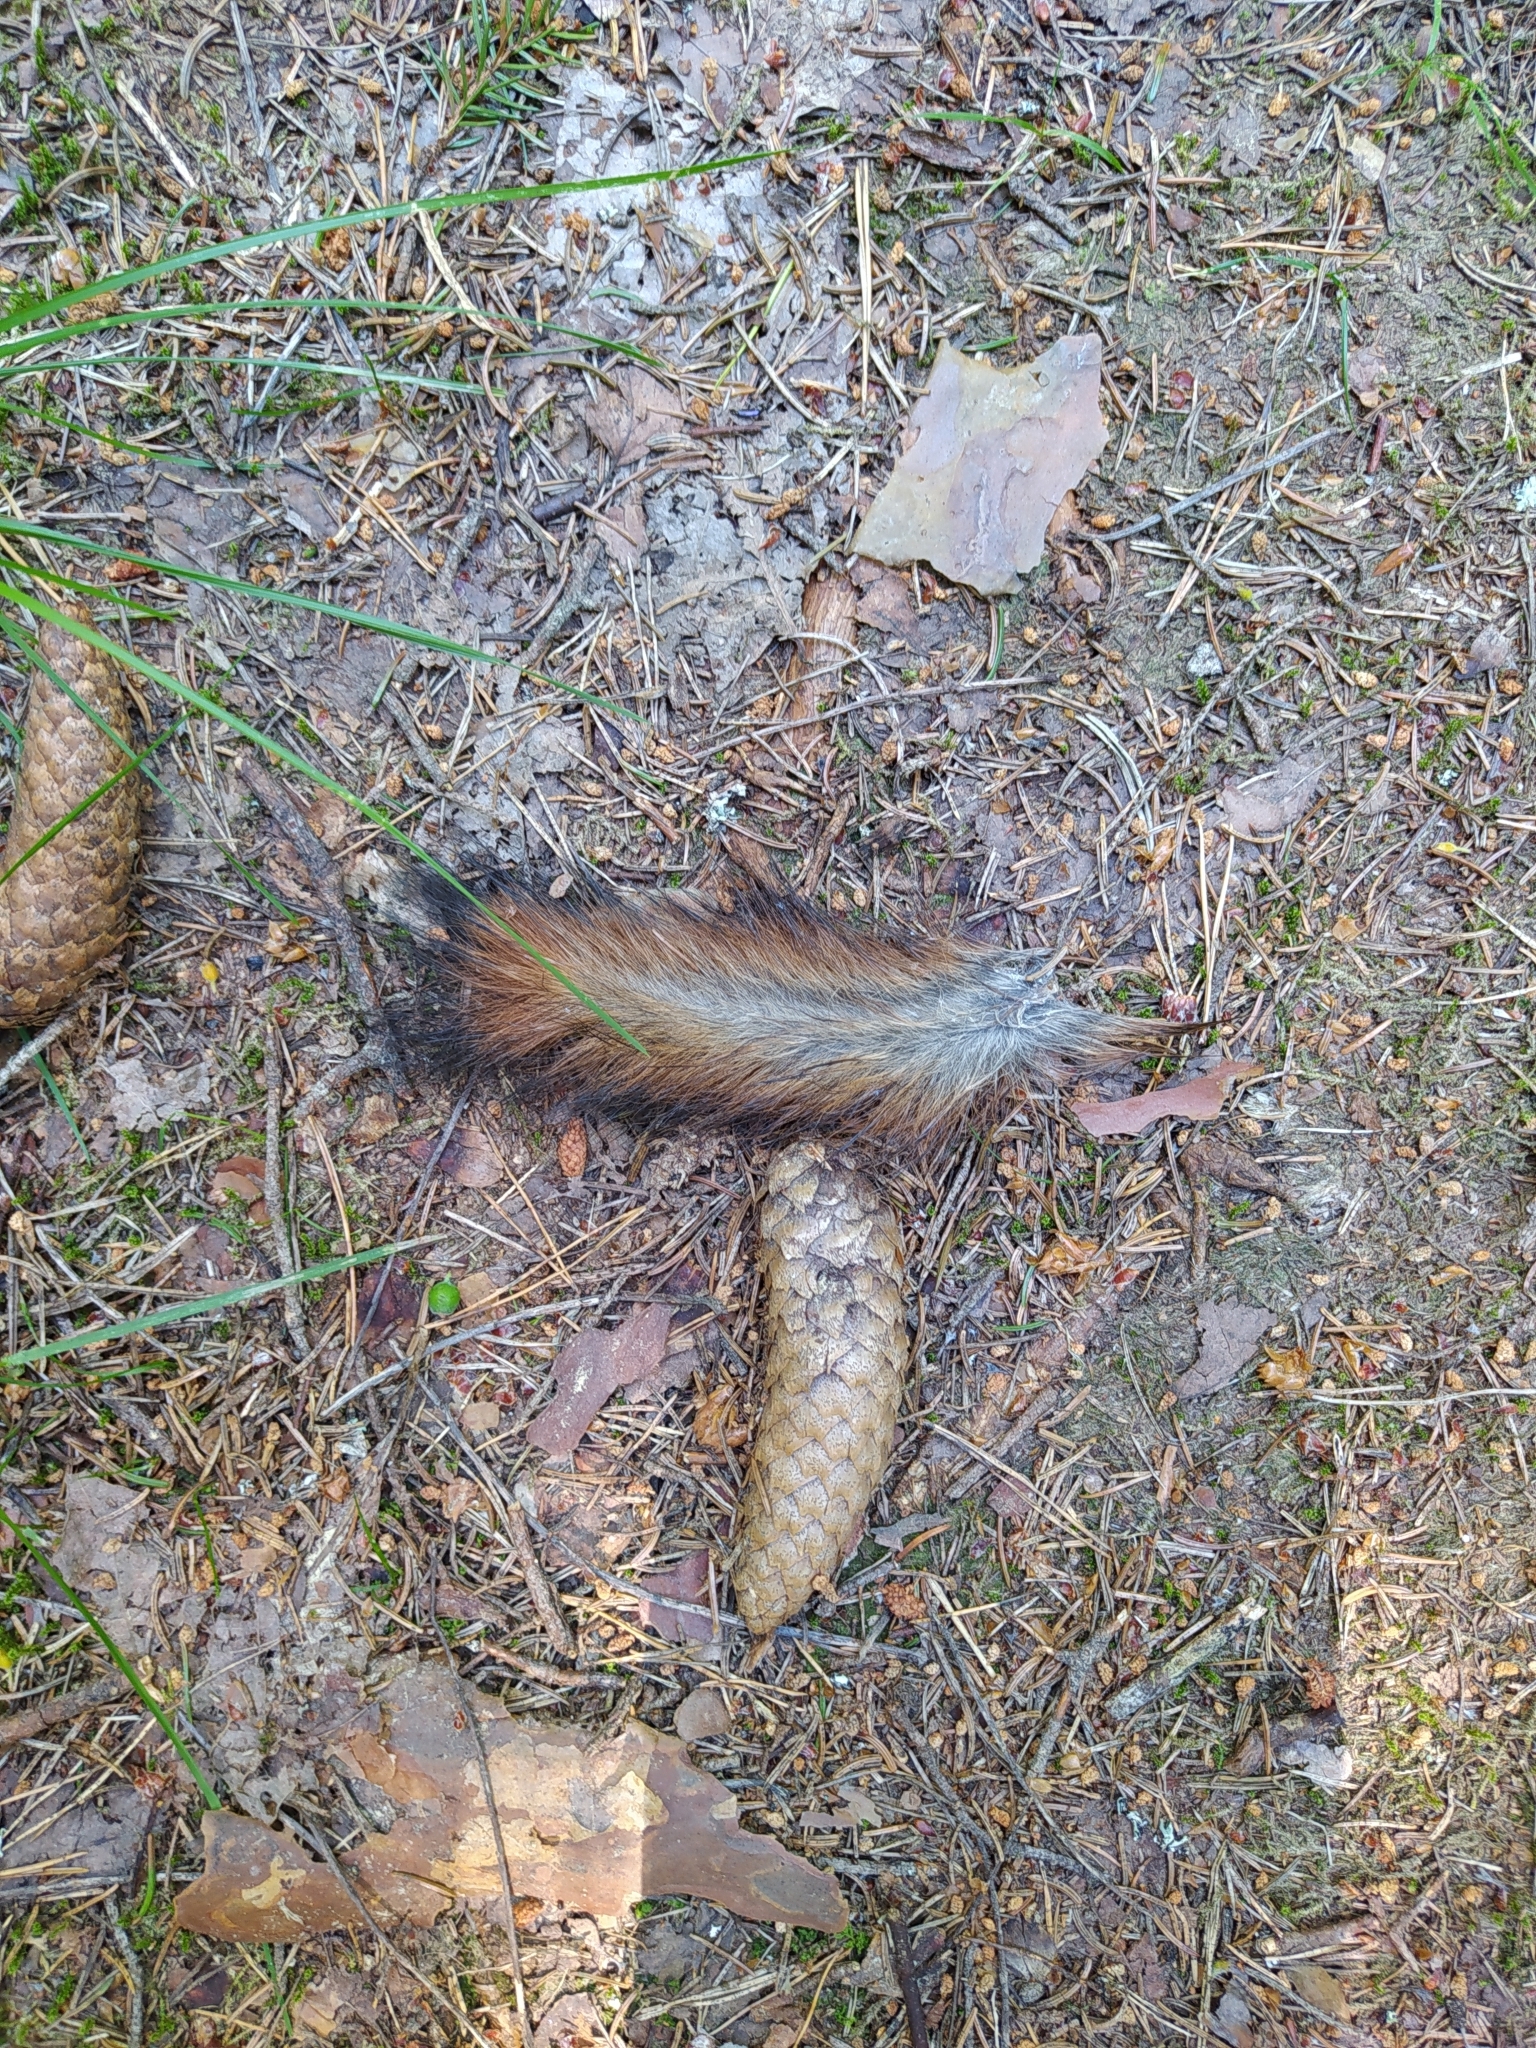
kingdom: Animalia
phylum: Chordata
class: Mammalia
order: Rodentia
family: Sciuridae
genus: Sciurus
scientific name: Sciurus vulgaris
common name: Eurasian red squirrel
